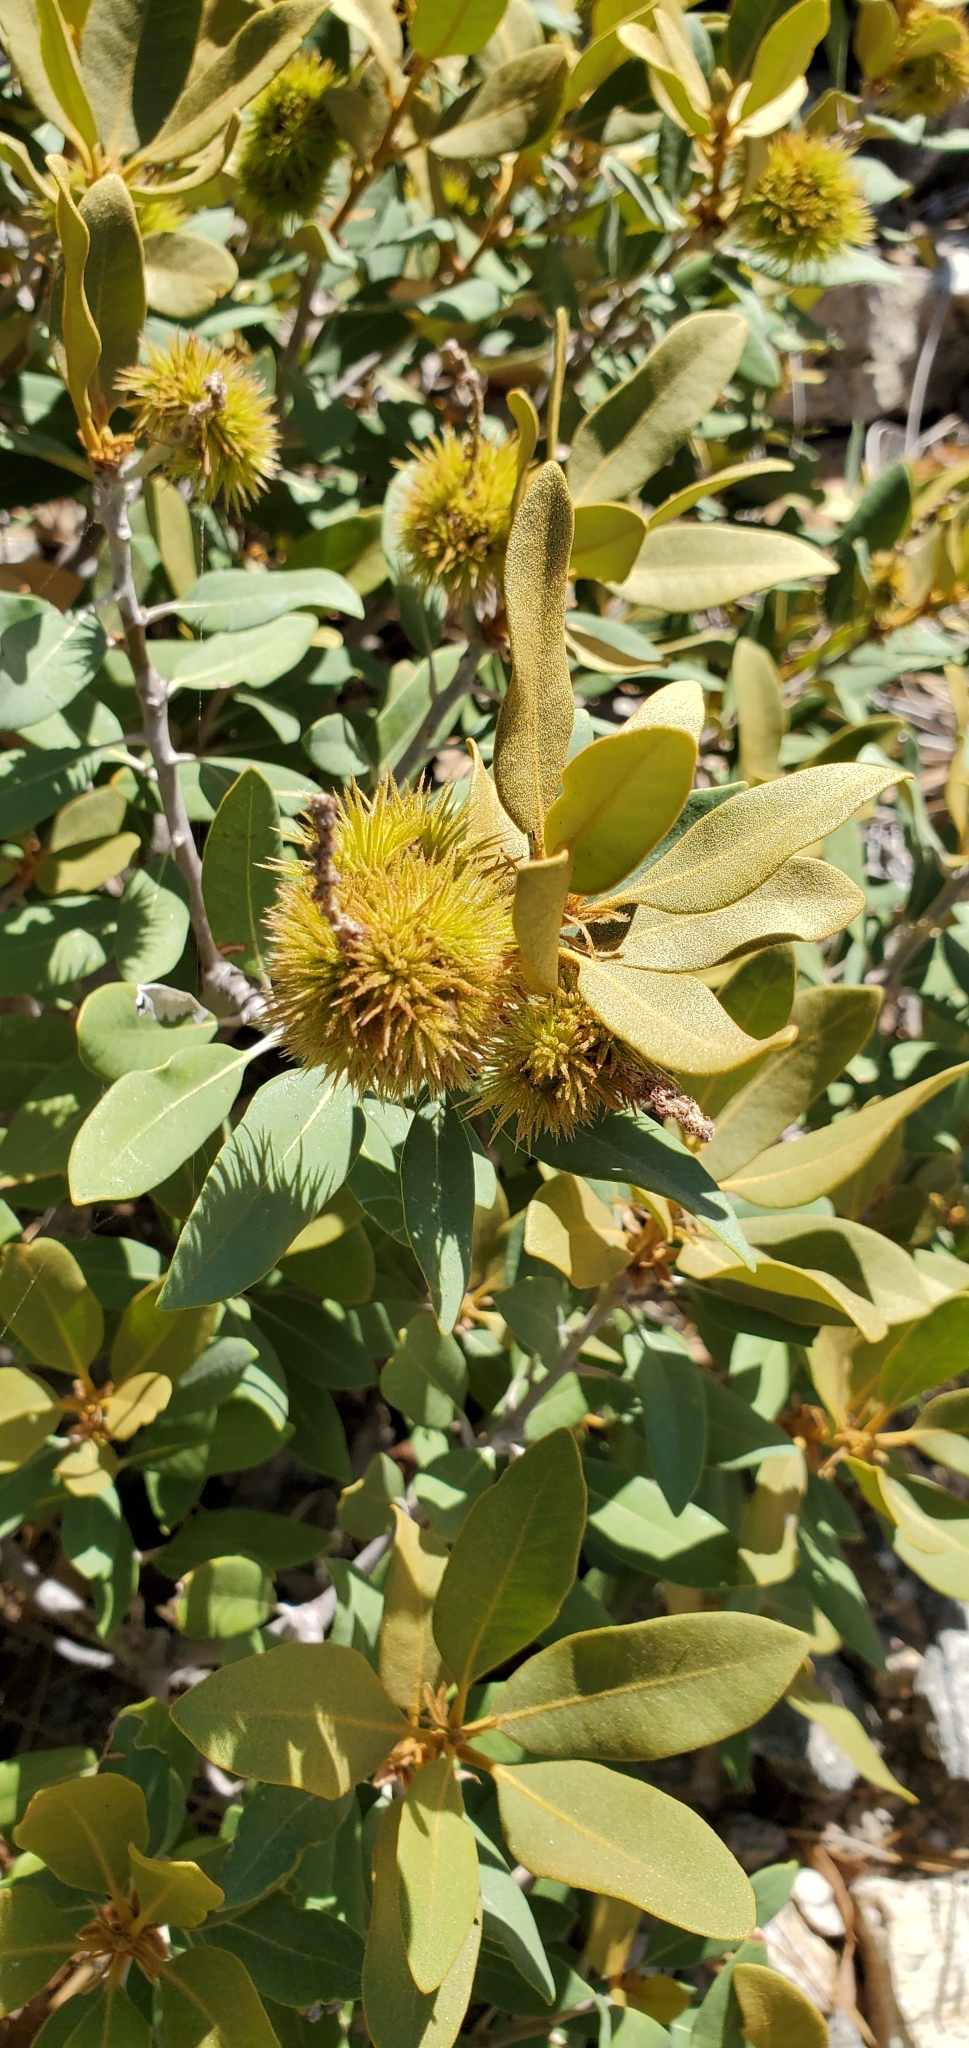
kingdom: Plantae
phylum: Tracheophyta
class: Magnoliopsida
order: Fagales
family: Fagaceae
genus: Chrysolepis
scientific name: Chrysolepis sempervirens
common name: Bush chinquapin
